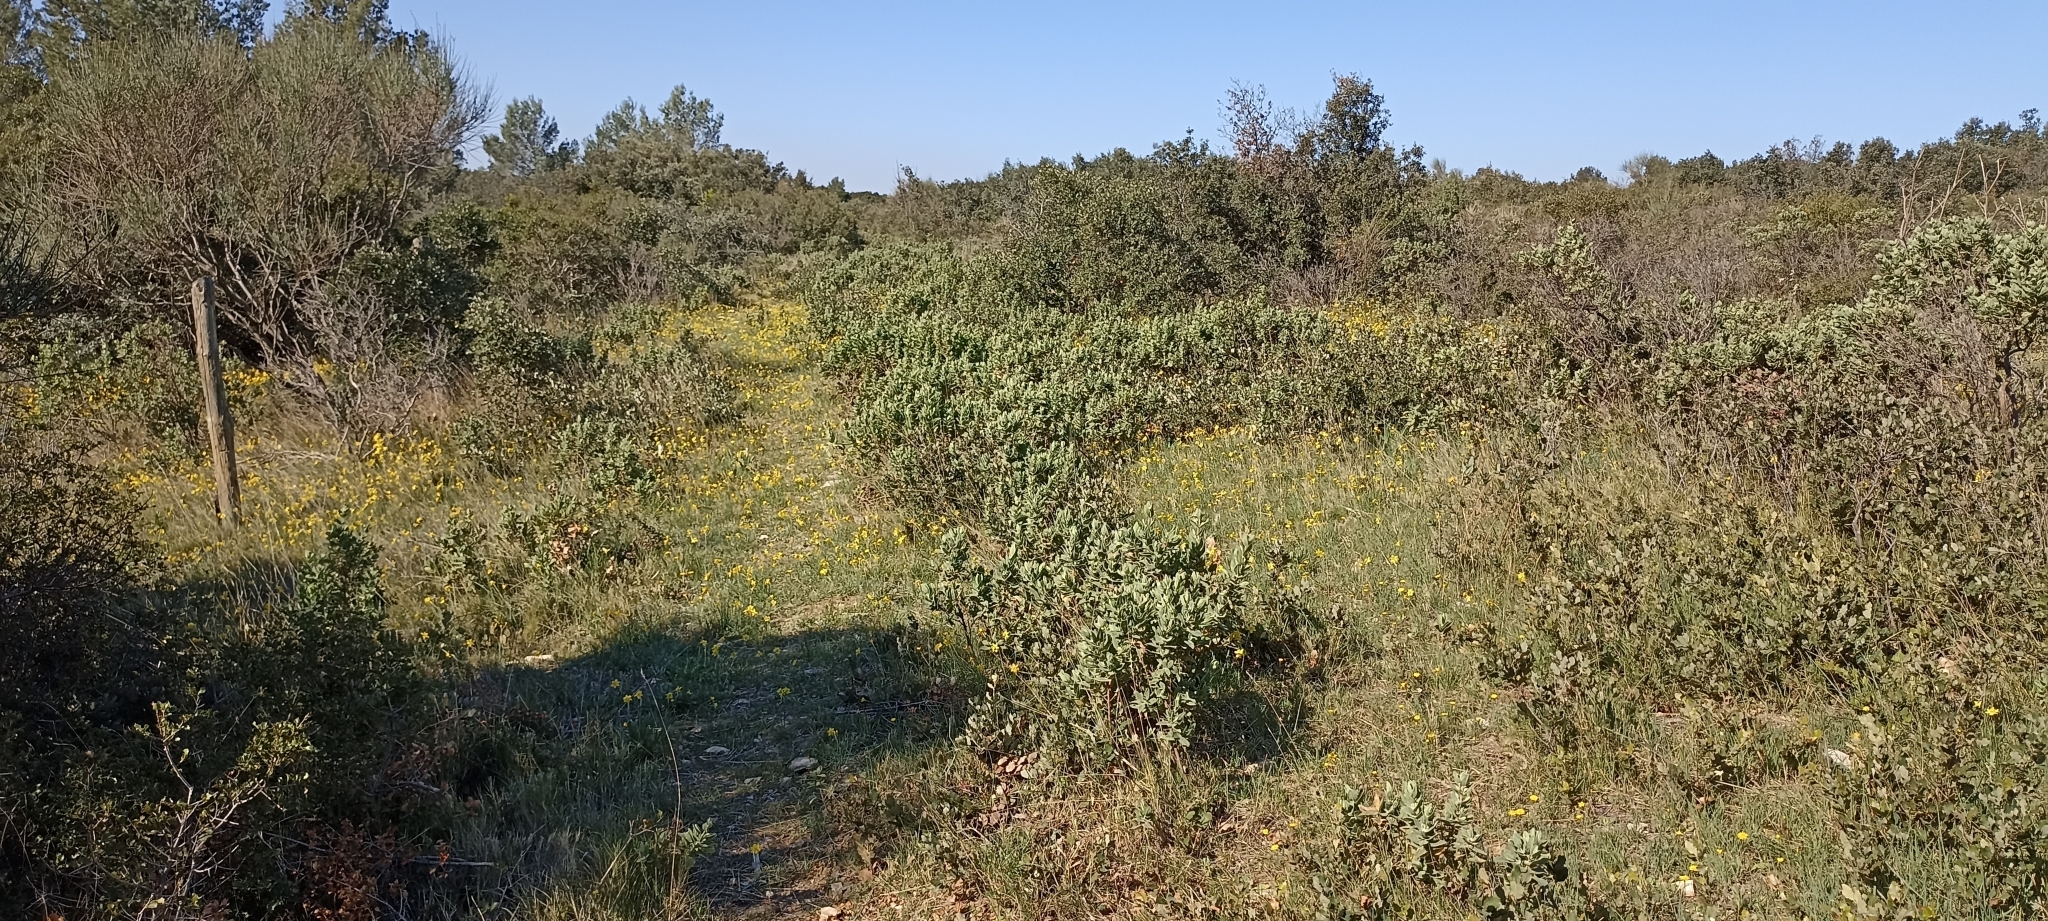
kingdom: Plantae
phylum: Tracheophyta
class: Liliopsida
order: Asparagales
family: Amaryllidaceae
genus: Narcissus
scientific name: Narcissus assoanus
